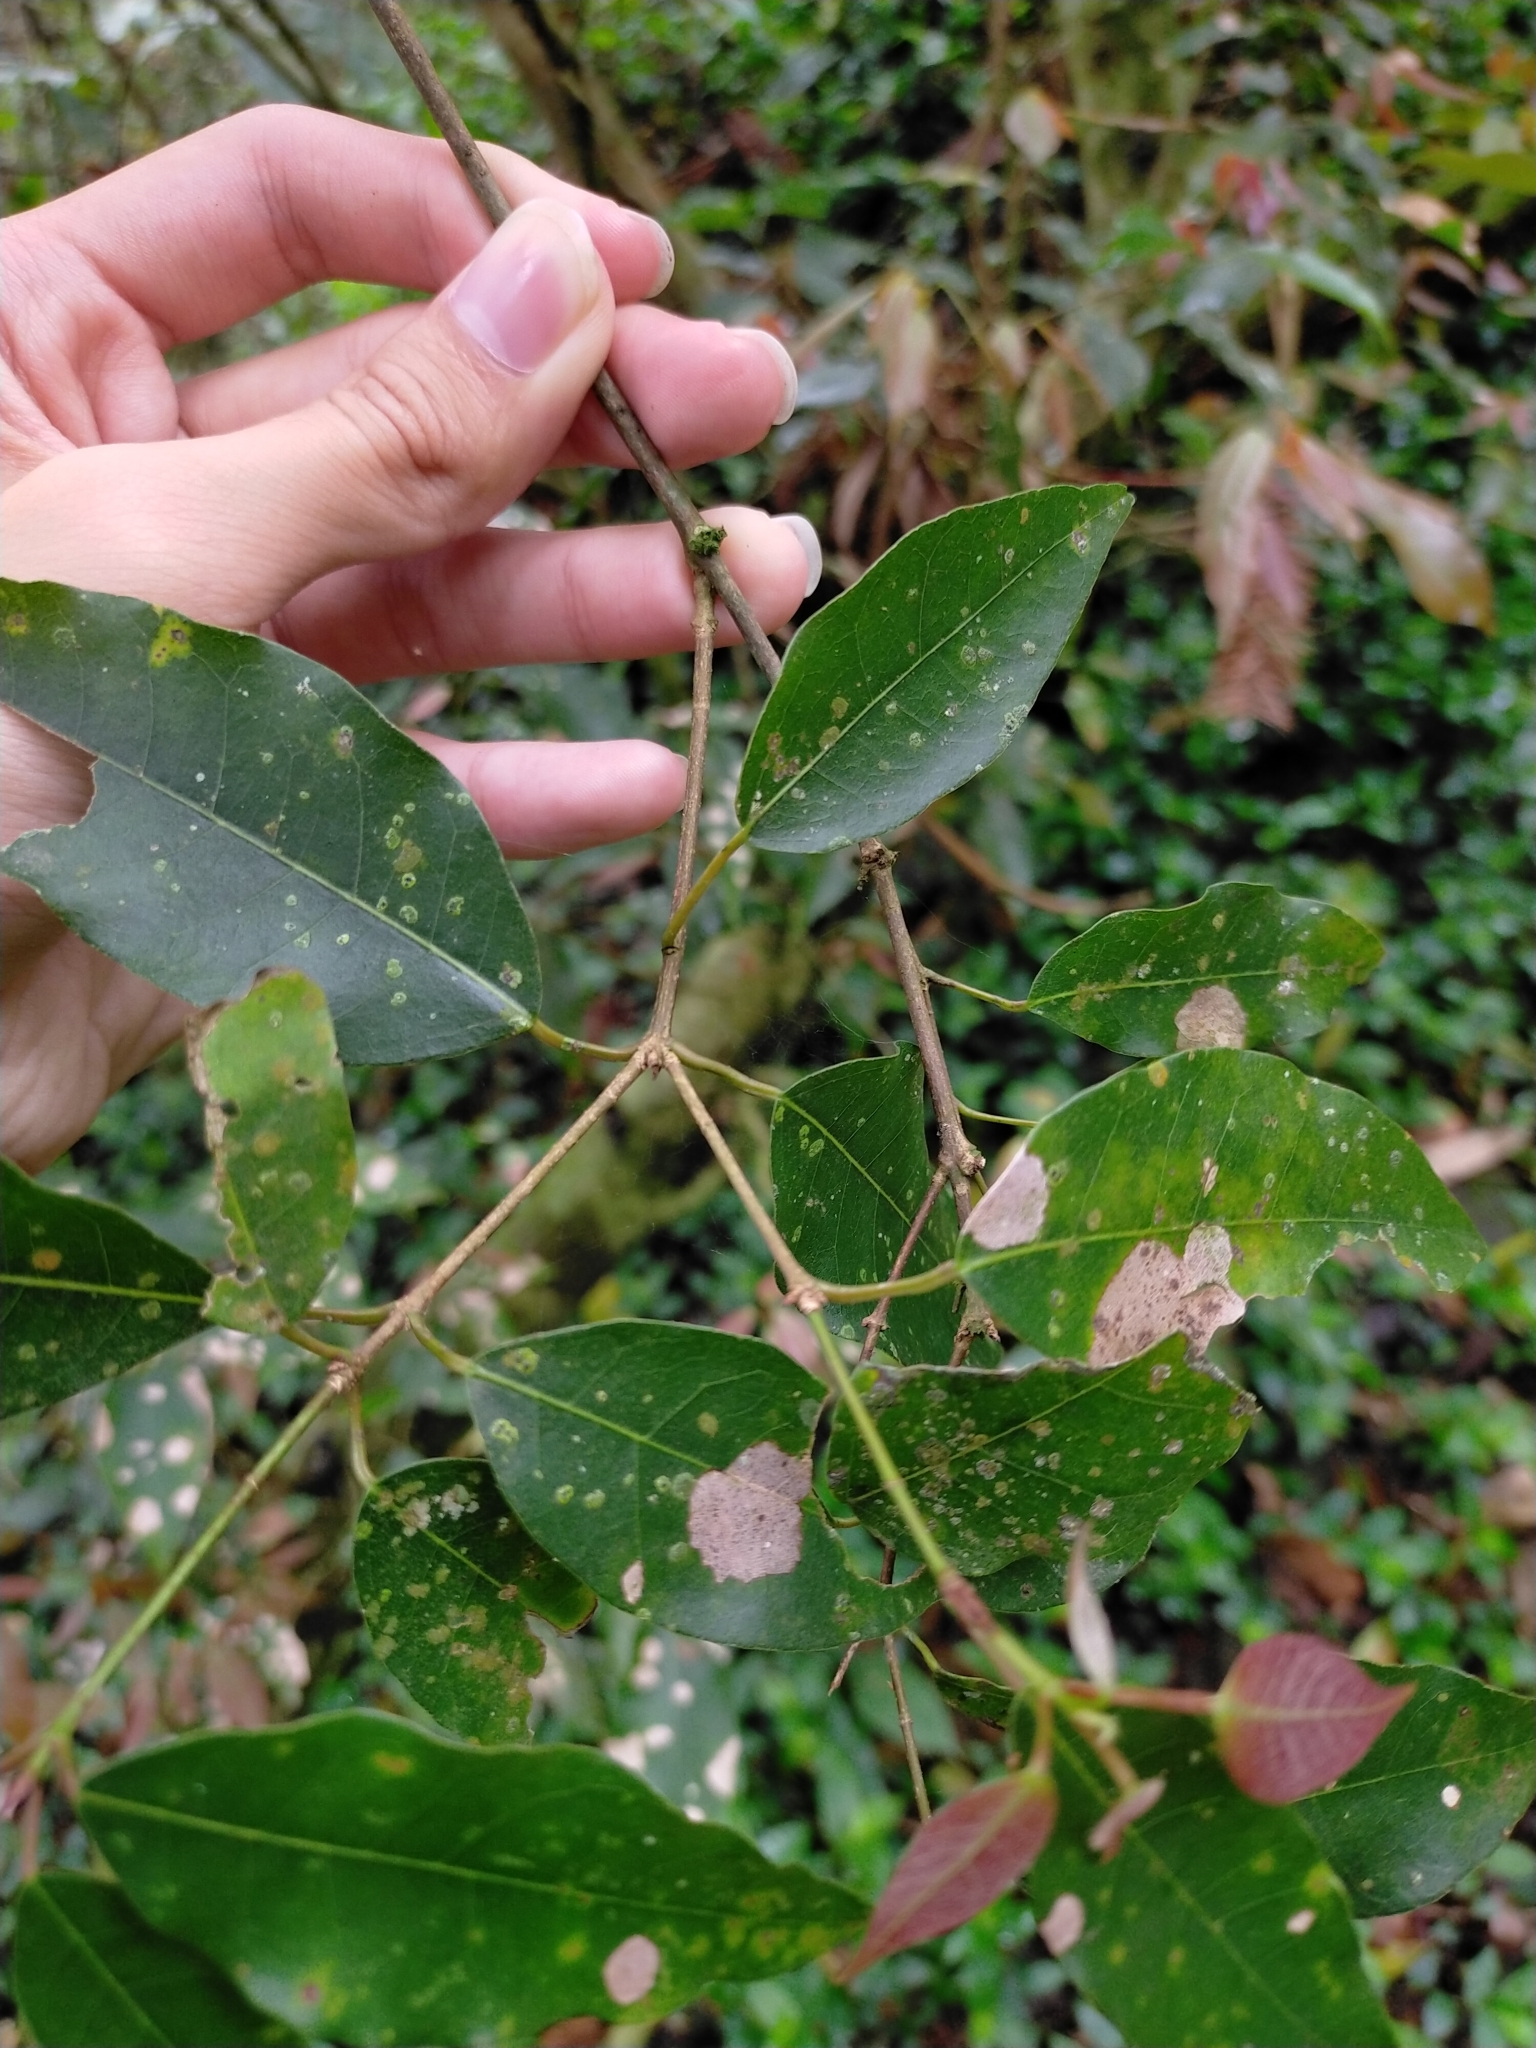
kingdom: Plantae
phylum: Tracheophyta
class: Magnoliopsida
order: Sapindales
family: Sapindaceae
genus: Acer
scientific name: Acer oblongum
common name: Himalayan maple
